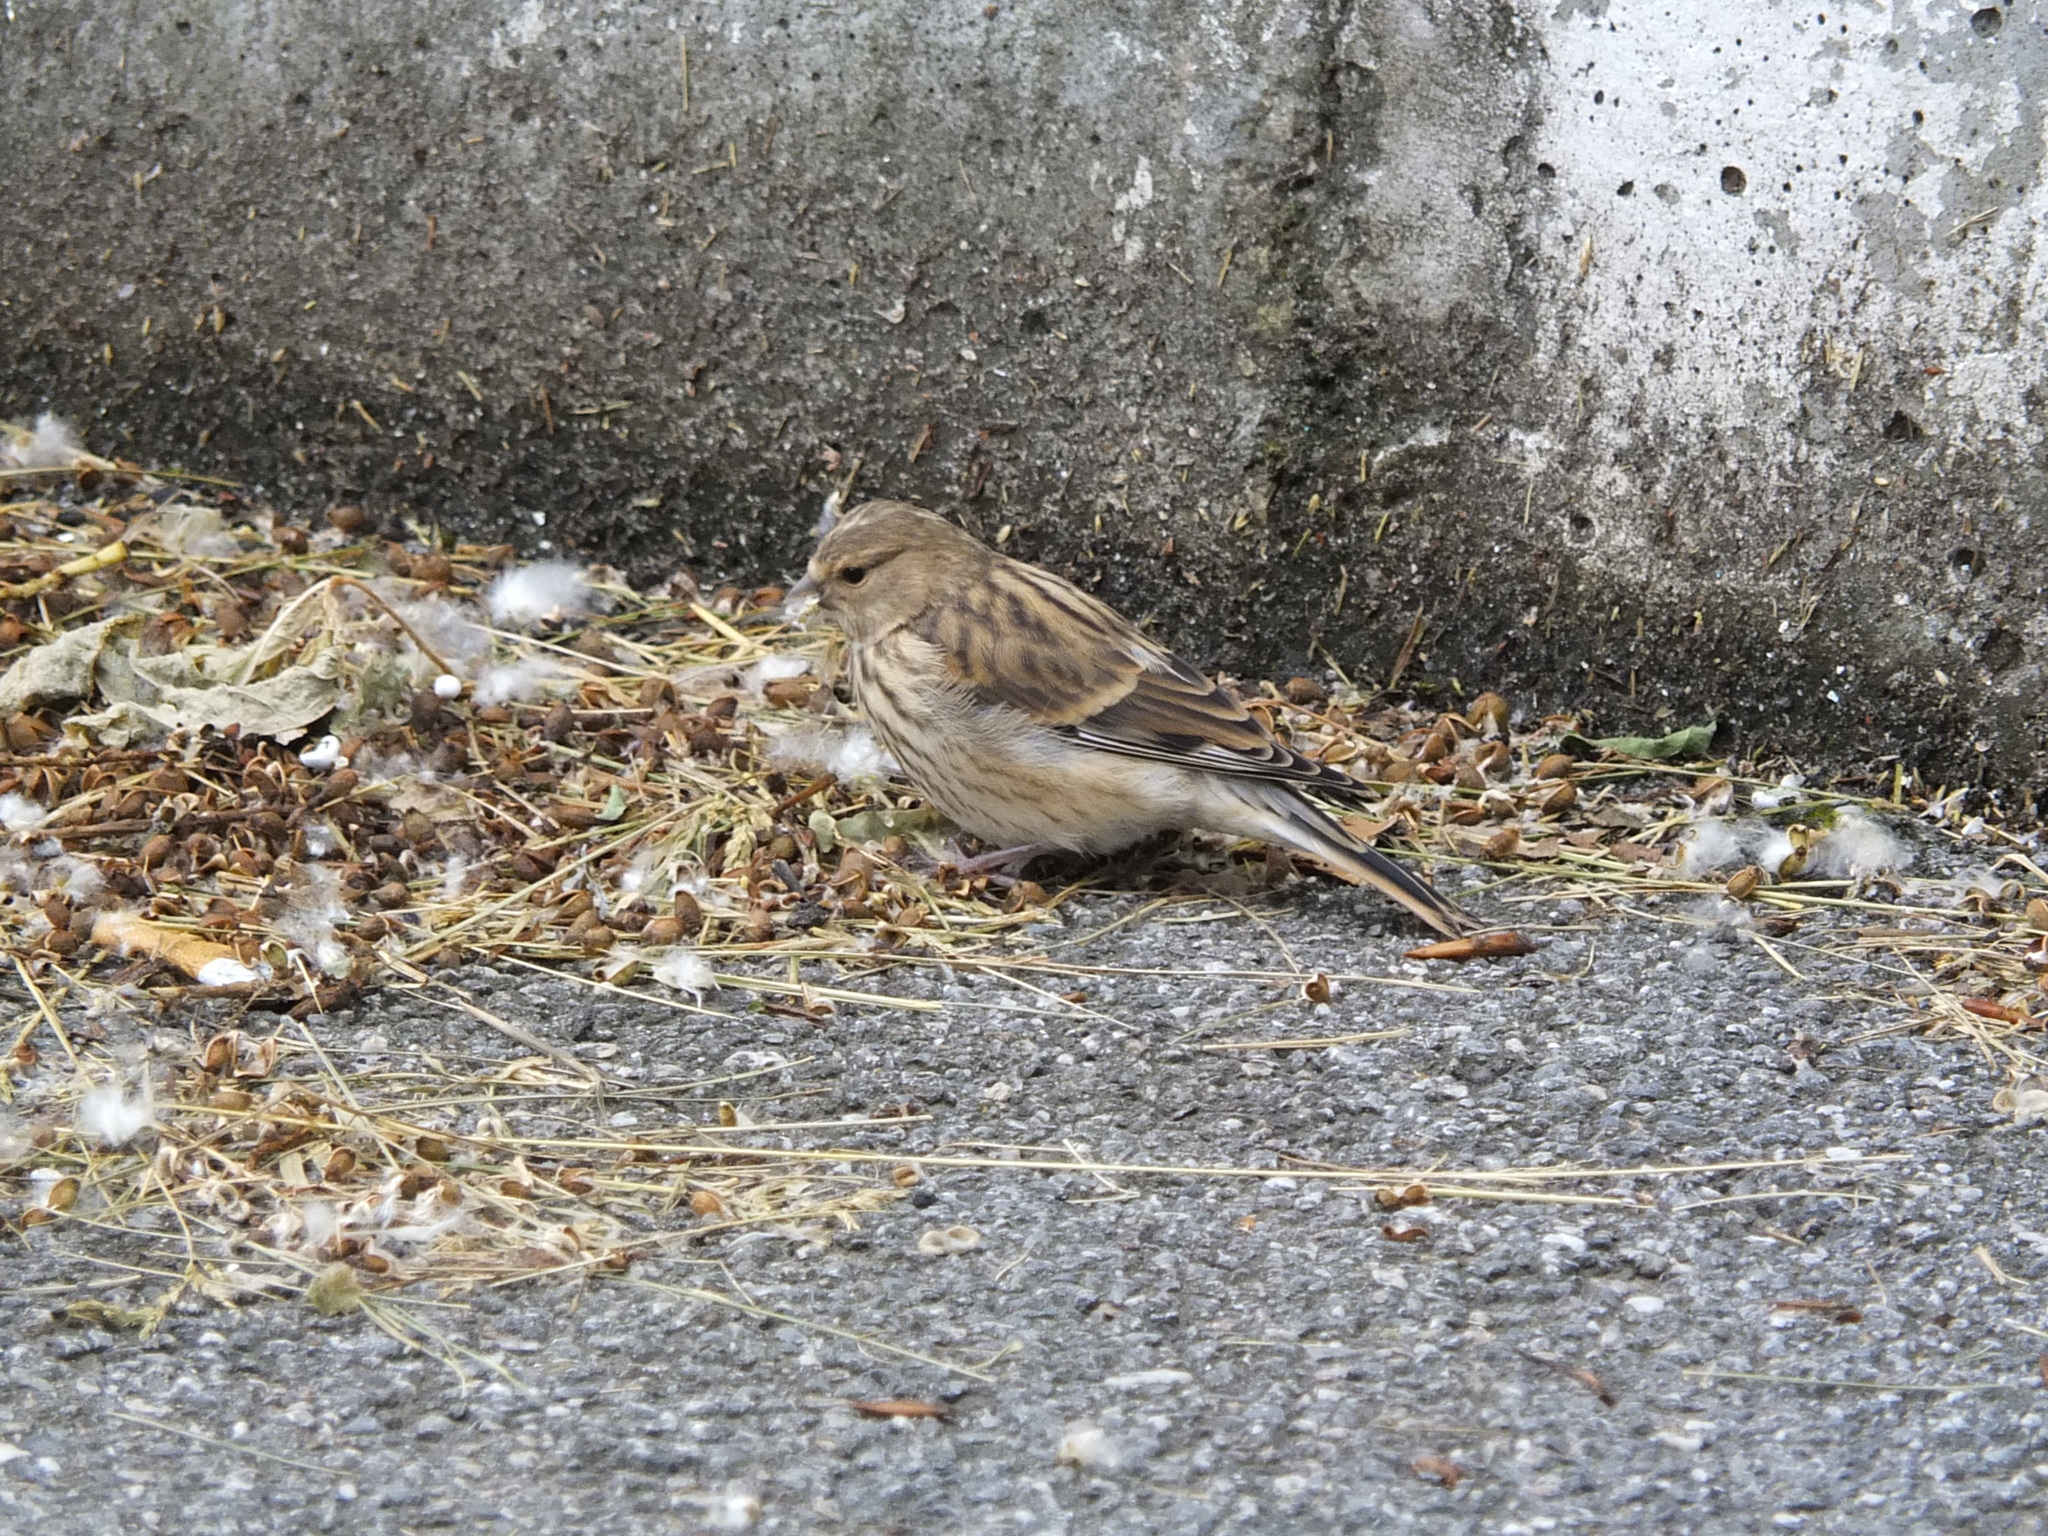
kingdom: Animalia
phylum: Chordata
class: Aves
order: Passeriformes
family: Fringillidae
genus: Linaria
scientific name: Linaria cannabina
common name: Common linnet
